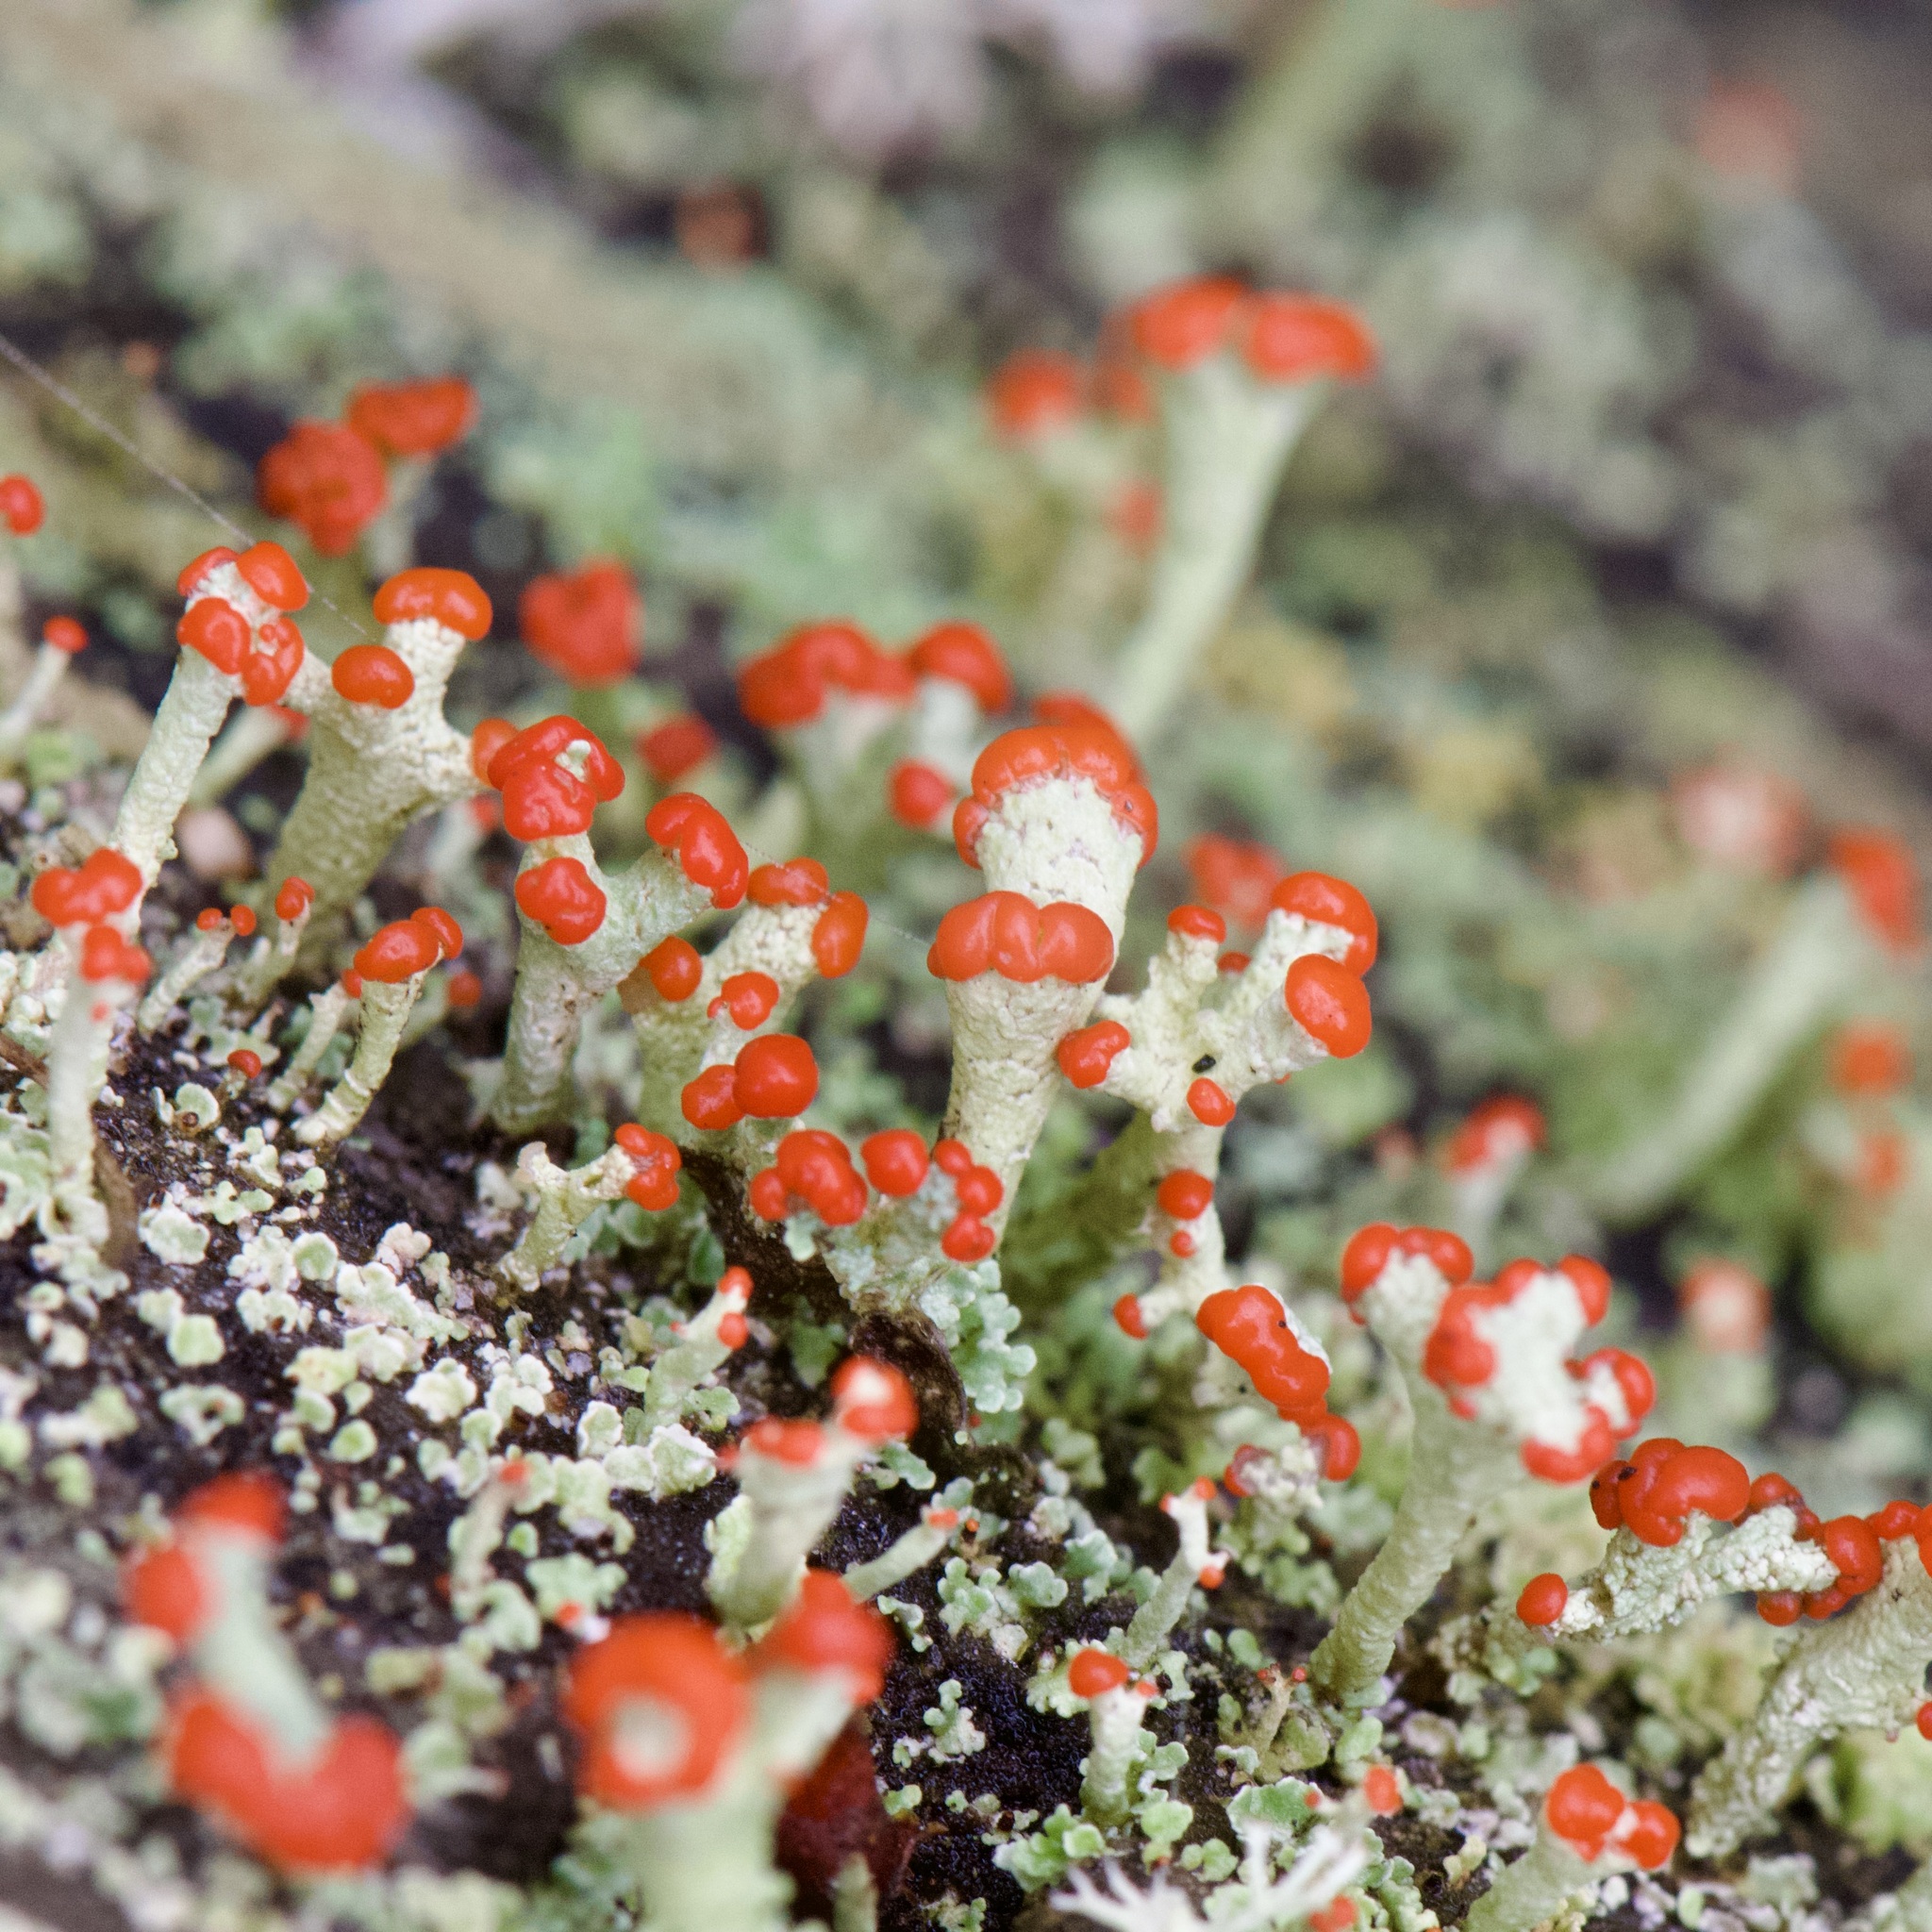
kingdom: Fungi
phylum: Ascomycota
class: Lecanoromycetes
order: Lecanorales
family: Cladoniaceae
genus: Cladonia
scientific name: Cladonia cristatella
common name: British soldier lichen
